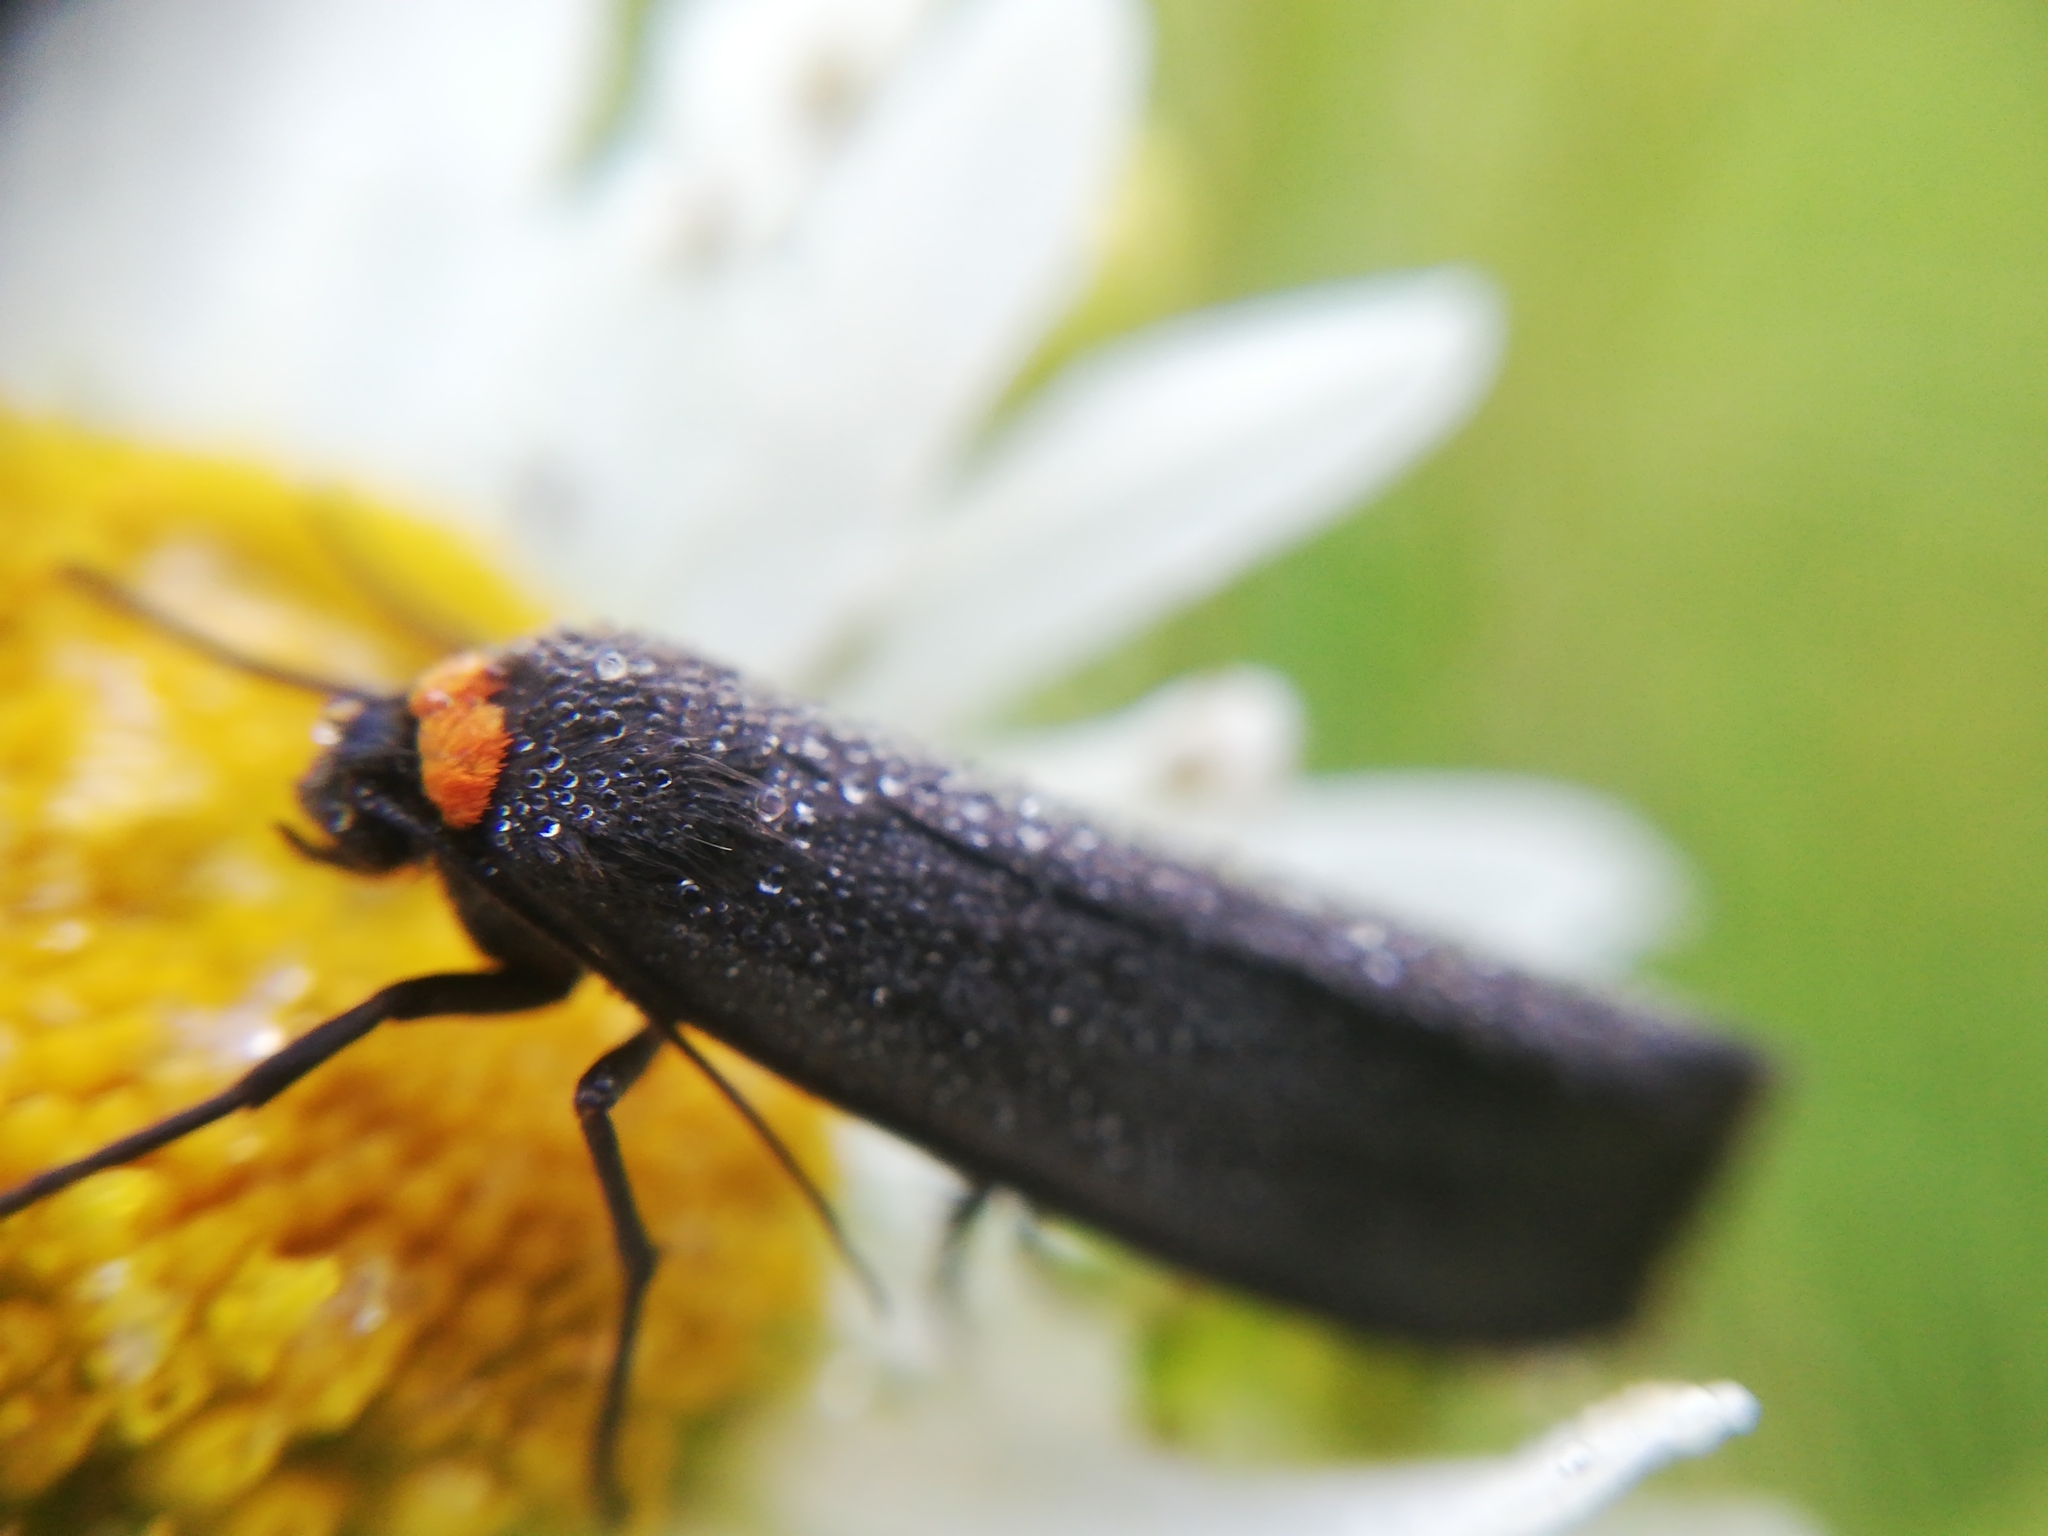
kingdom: Animalia
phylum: Arthropoda
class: Insecta
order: Lepidoptera
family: Erebidae
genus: Atolmis
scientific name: Atolmis rubricollis
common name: Red-necked footman
